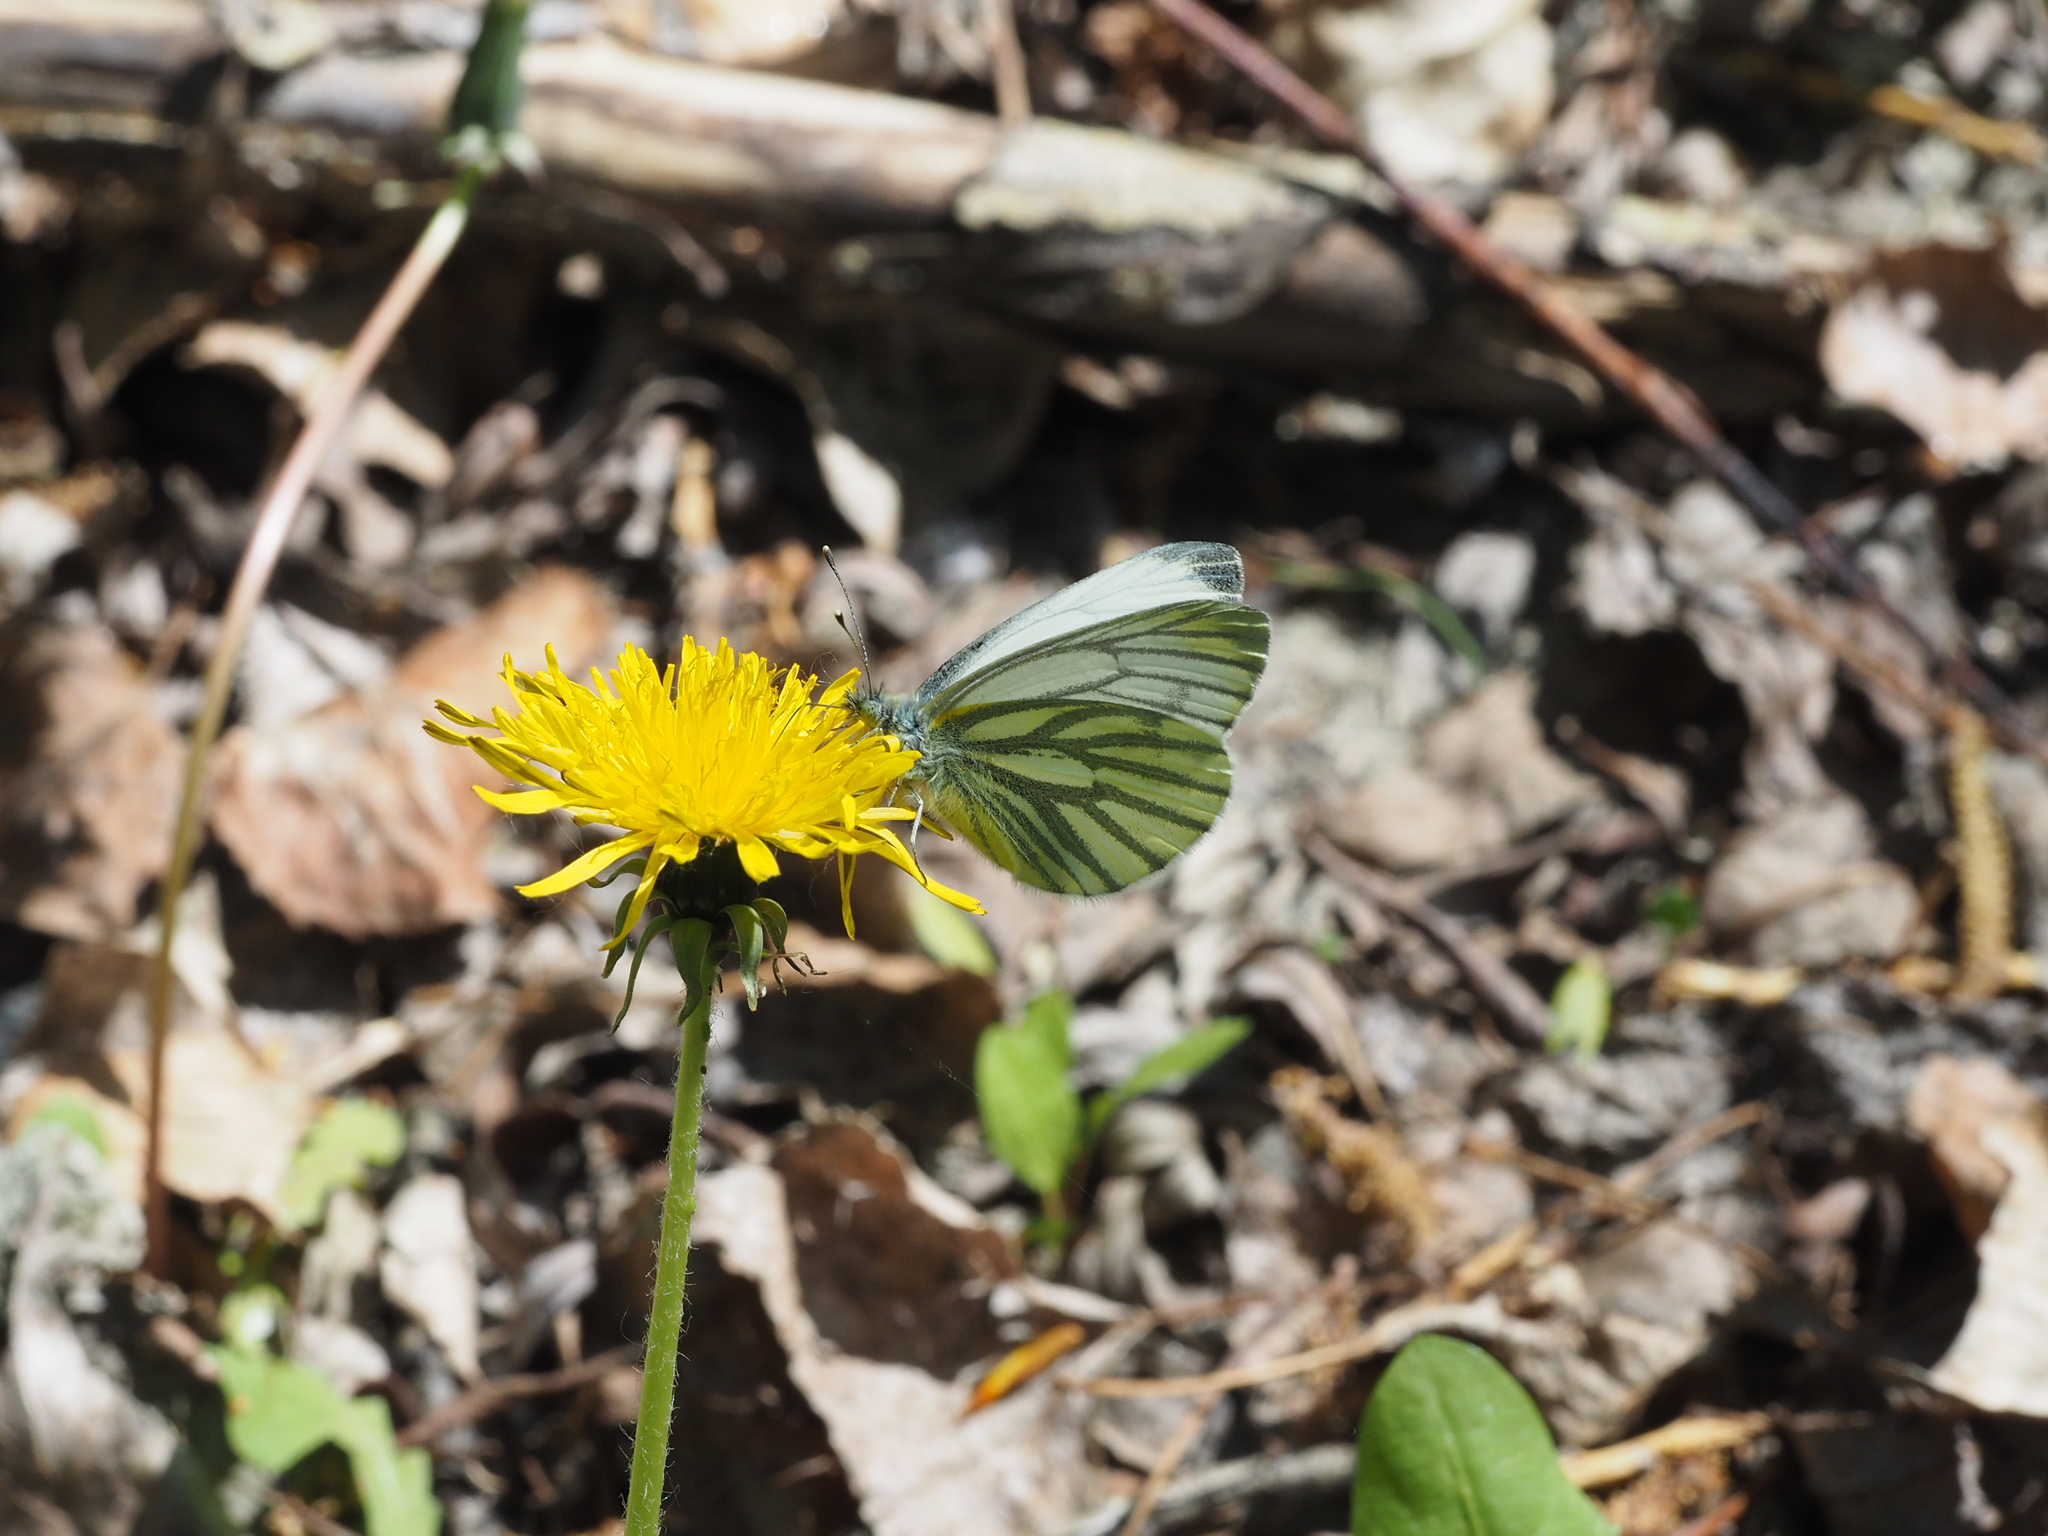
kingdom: Animalia
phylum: Arthropoda
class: Insecta
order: Lepidoptera
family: Pieridae
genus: Pieris
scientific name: Pieris napi
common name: Green-veined white
